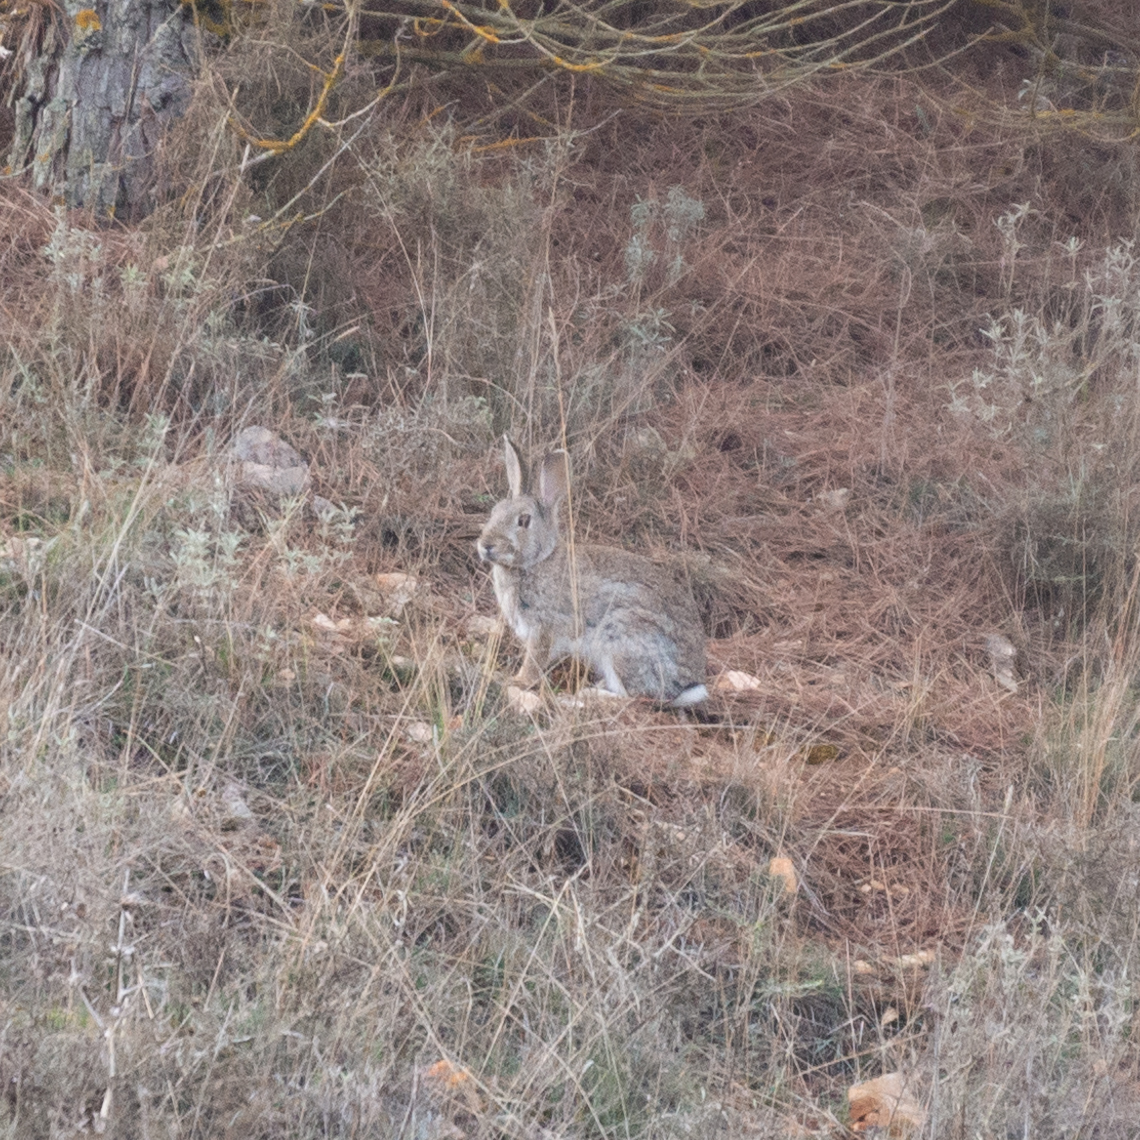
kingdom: Animalia
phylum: Chordata
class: Mammalia
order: Lagomorpha
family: Leporidae
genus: Oryctolagus
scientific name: Oryctolagus cuniculus
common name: European rabbit
